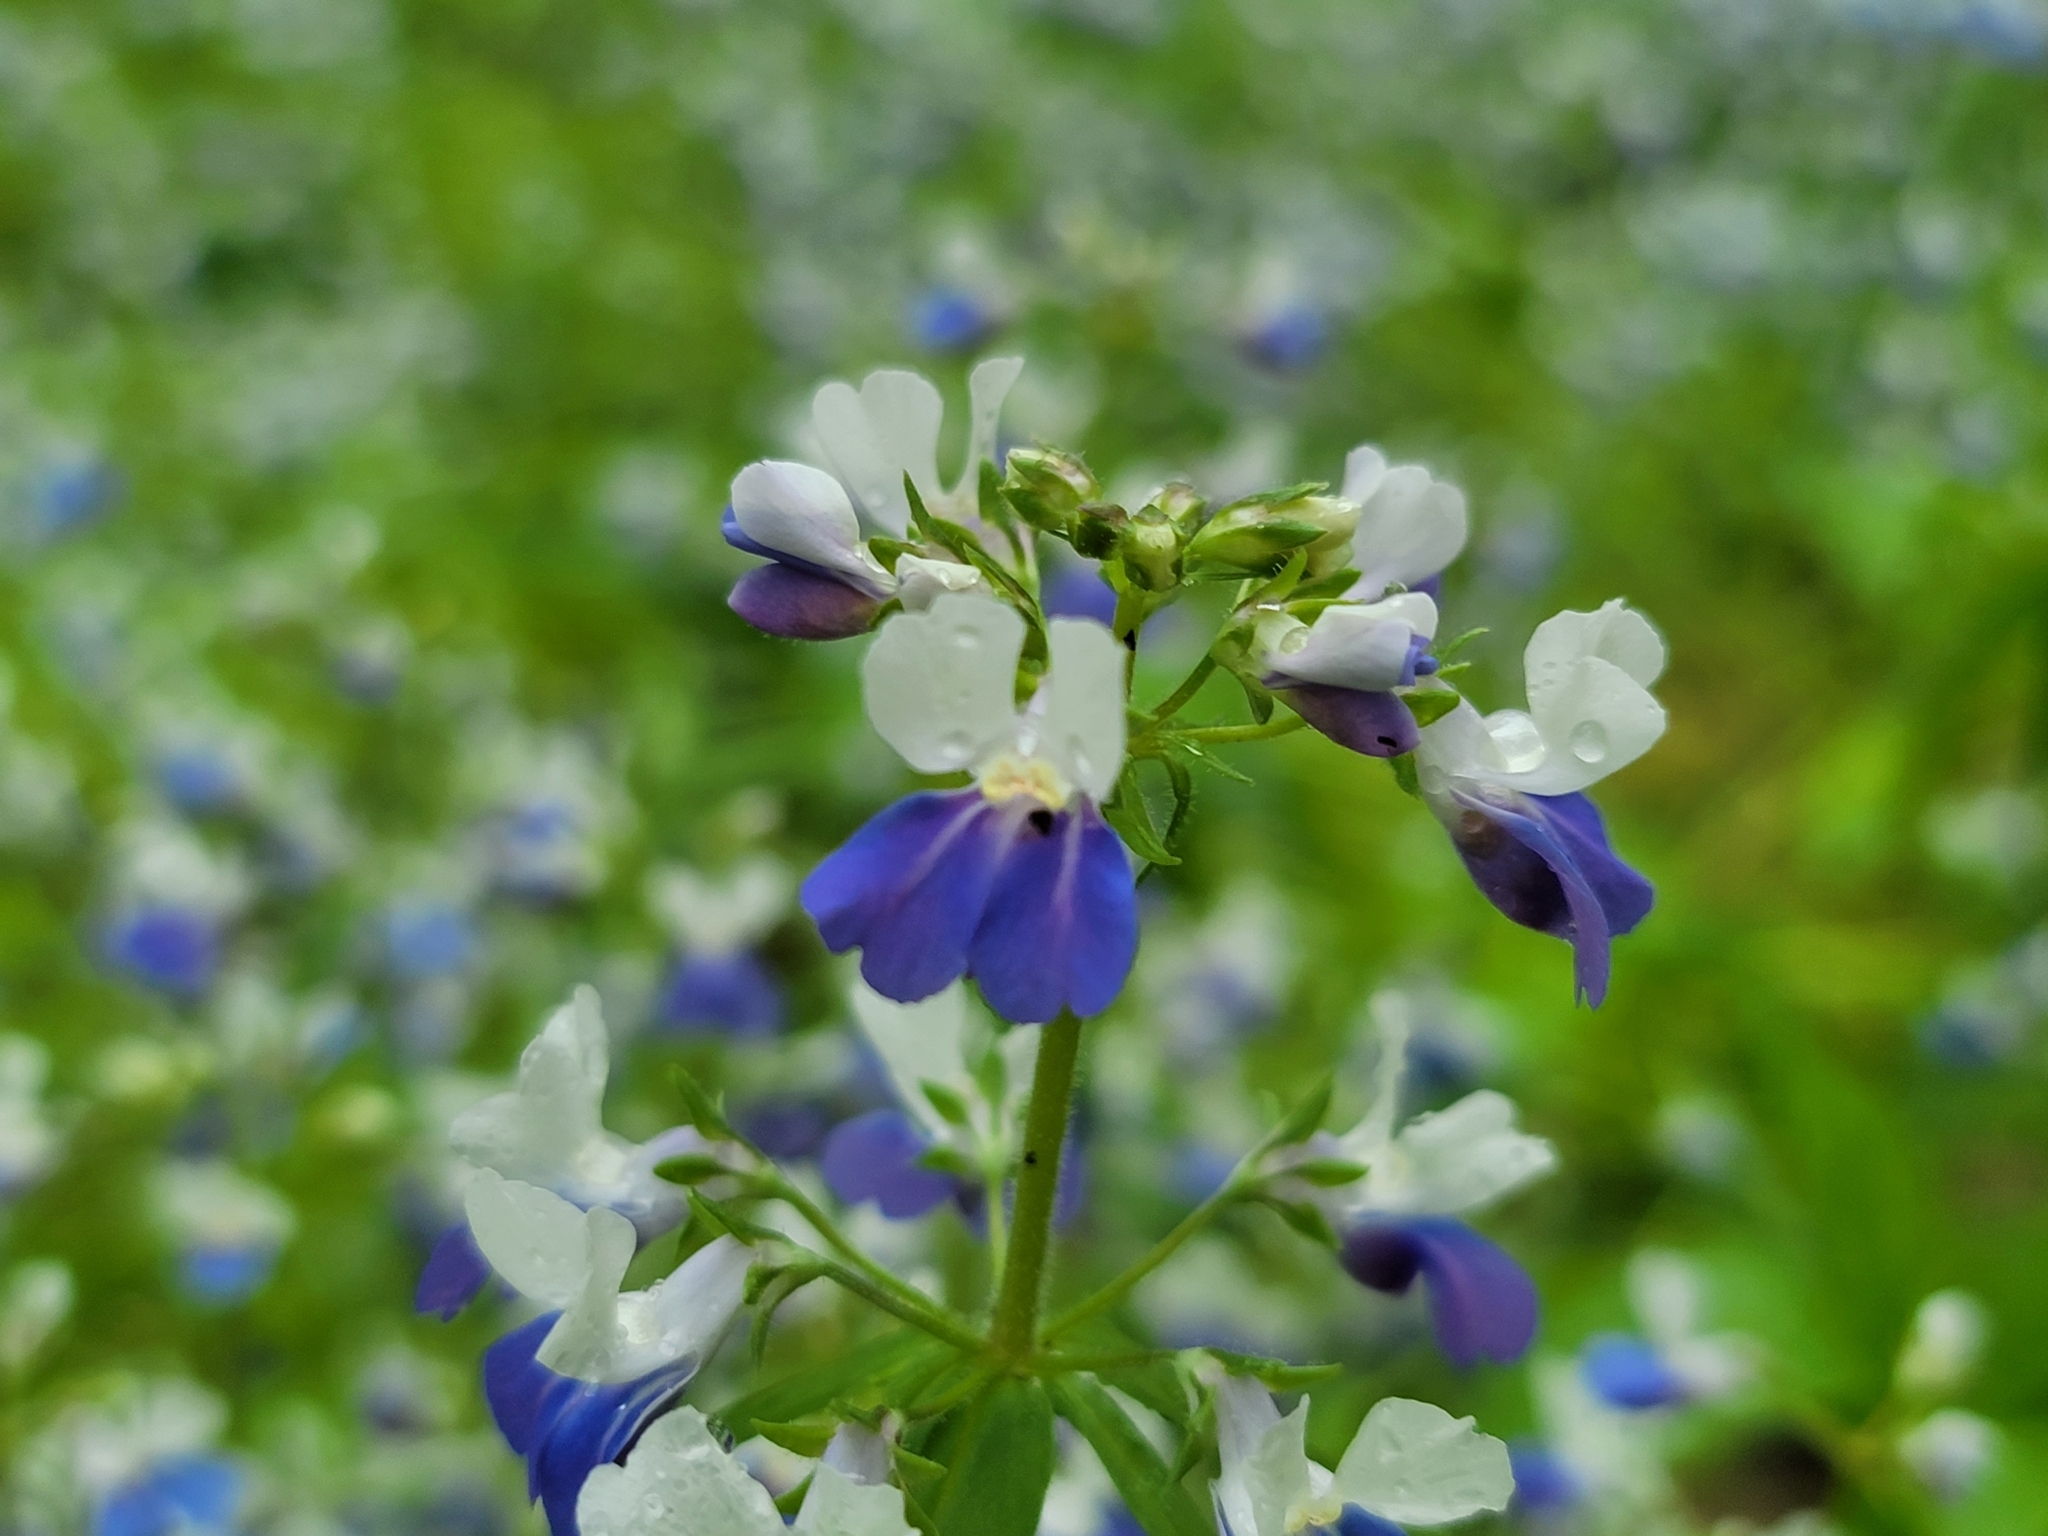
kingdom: Plantae
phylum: Tracheophyta
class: Magnoliopsida
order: Lamiales
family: Plantaginaceae
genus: Collinsia
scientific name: Collinsia verna
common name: Broad-leaved collinsia
